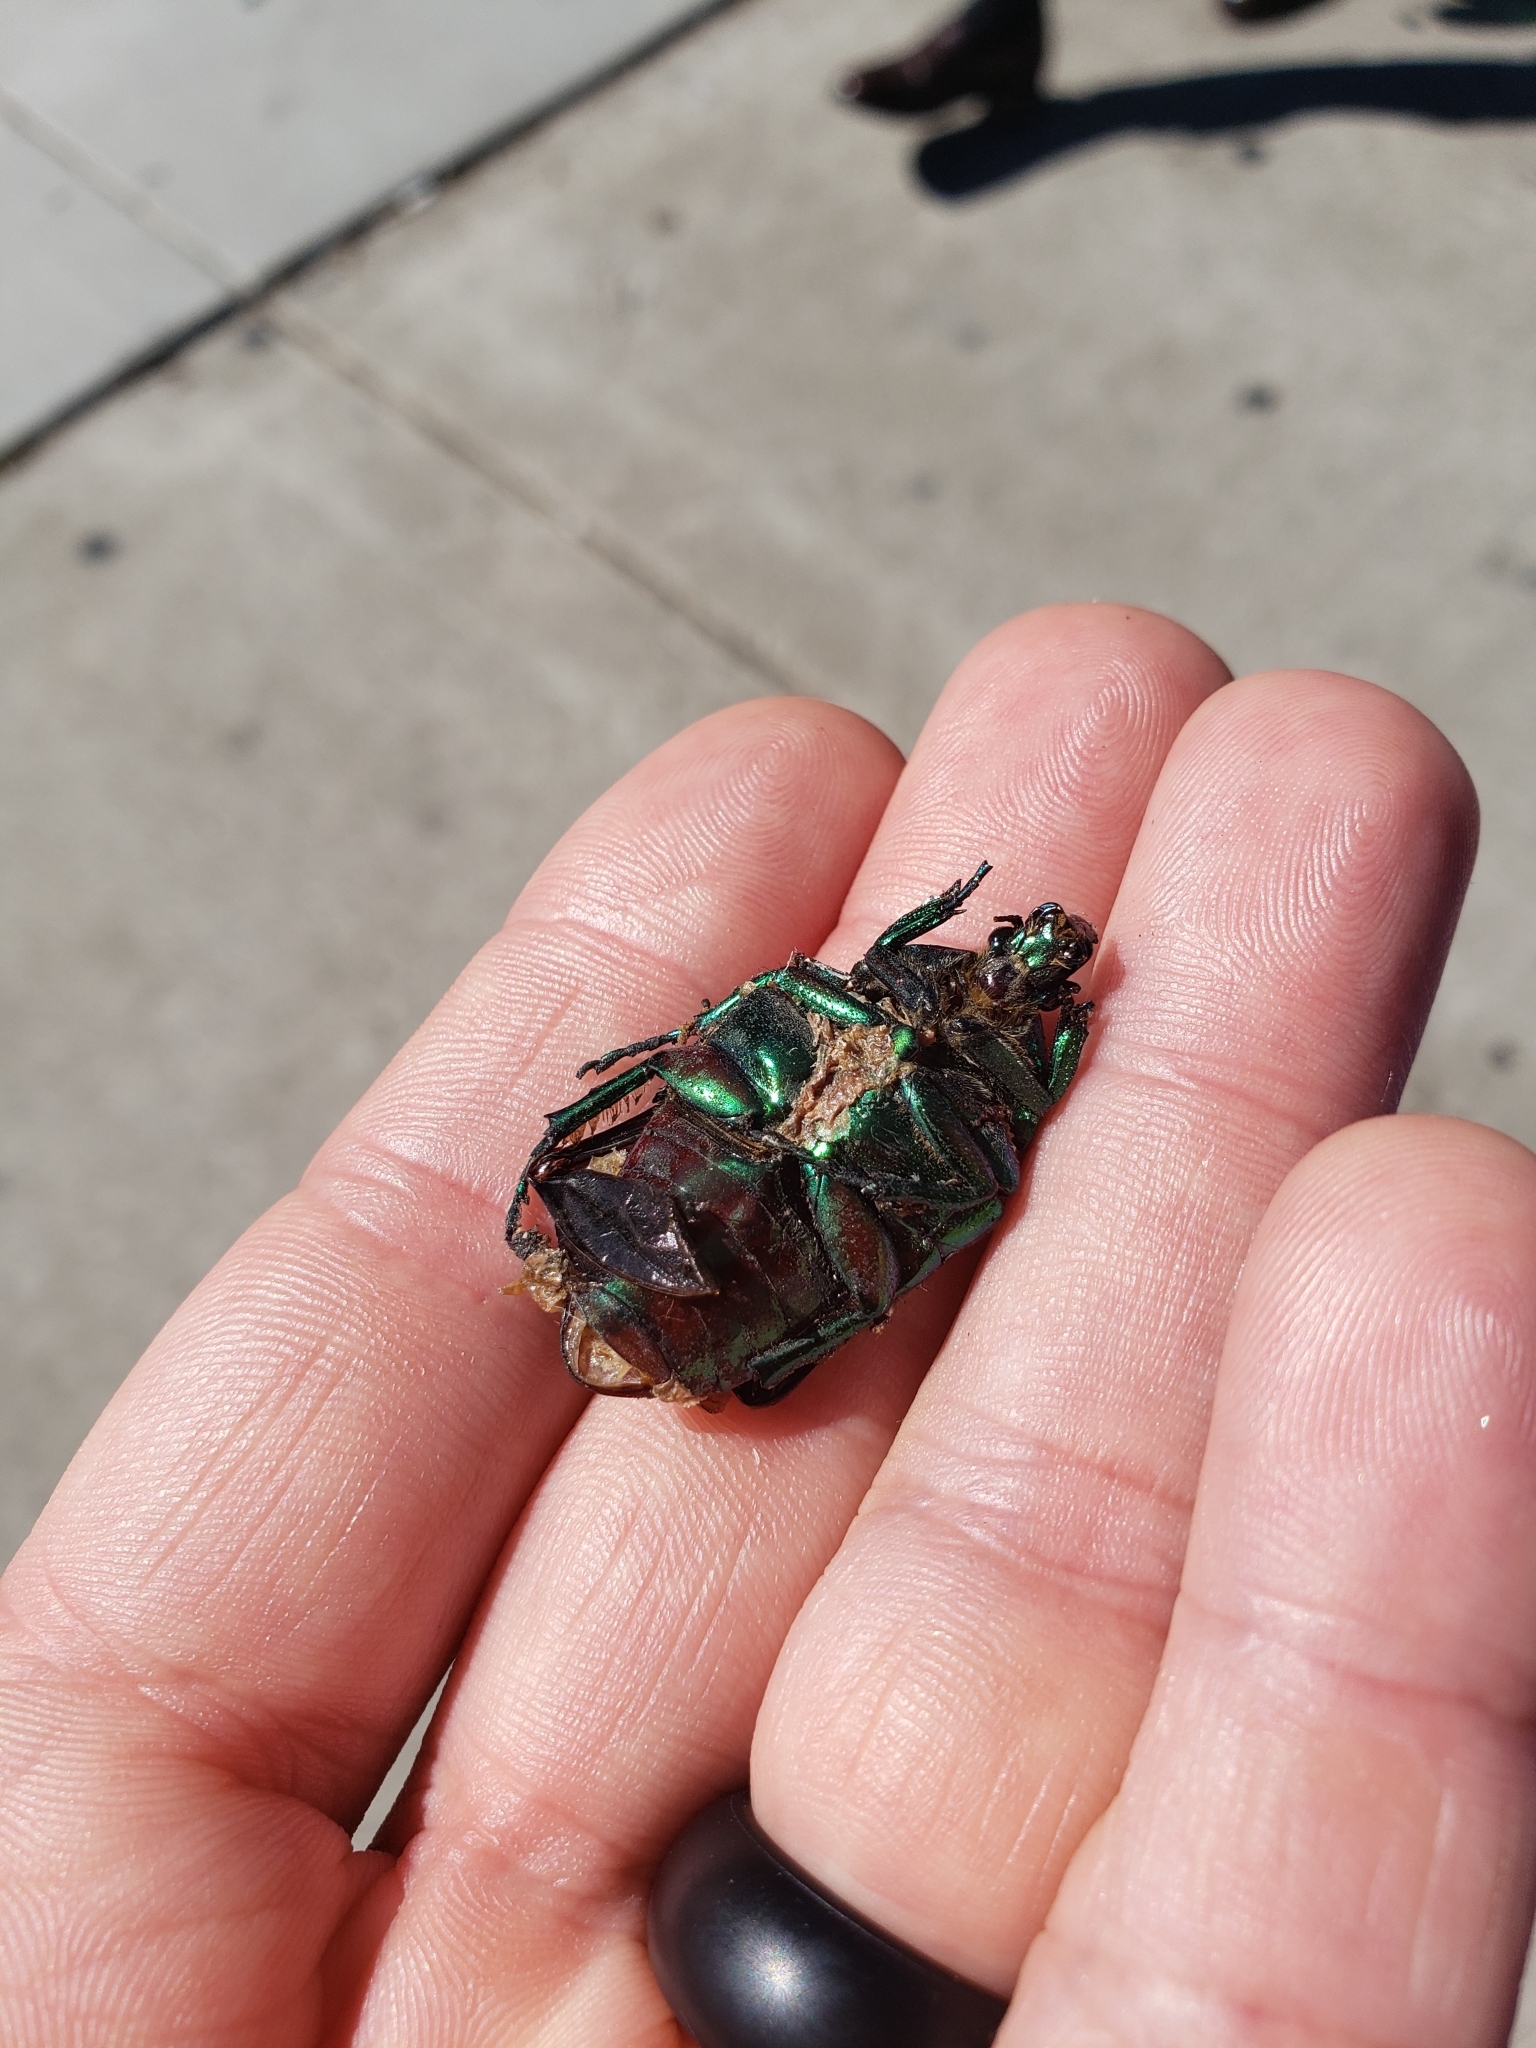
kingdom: Animalia
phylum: Arthropoda
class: Insecta
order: Coleoptera
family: Scarabaeidae
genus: Cotinis
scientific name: Cotinis mutabilis
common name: Figeater beetle
